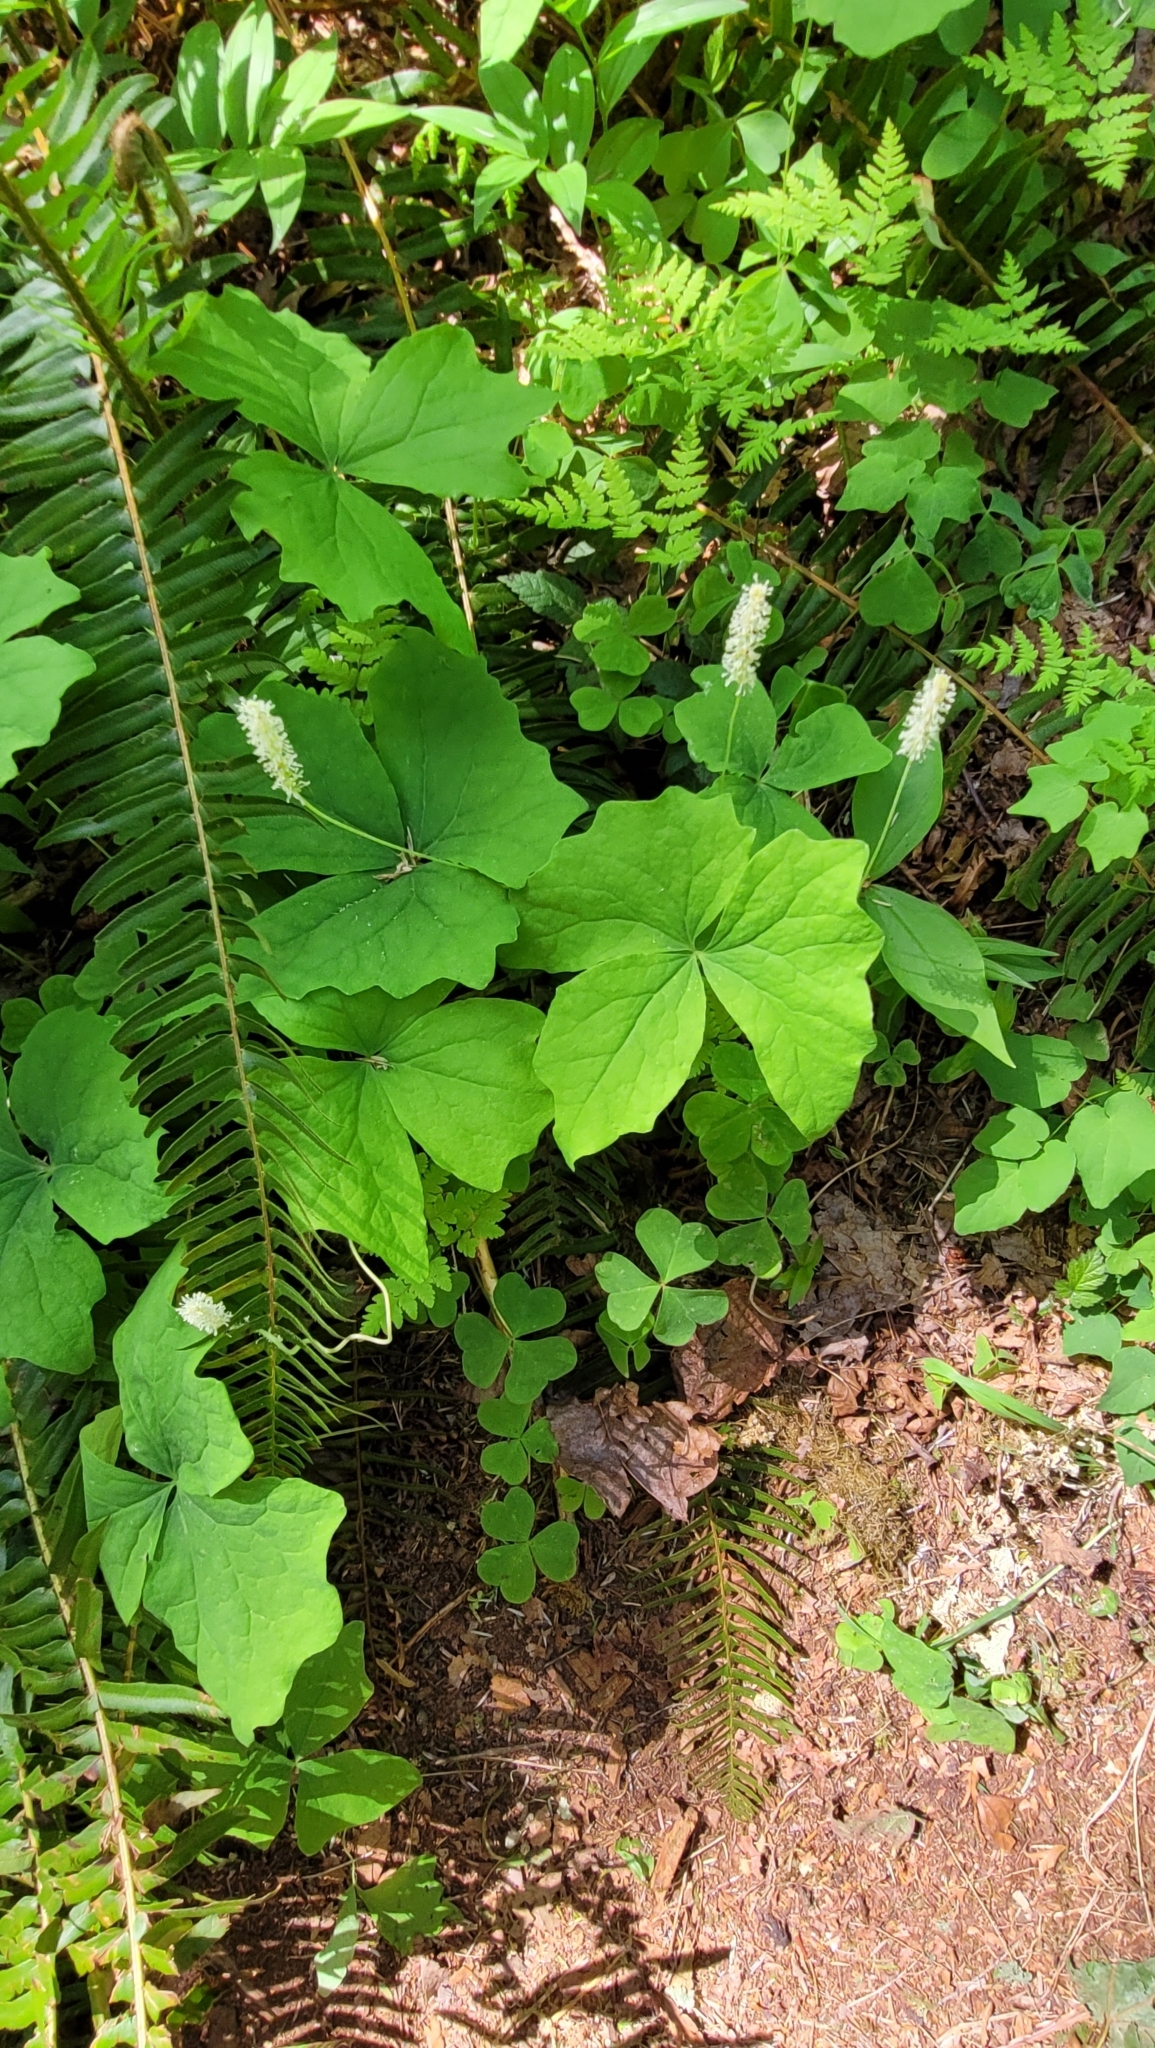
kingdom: Plantae
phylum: Tracheophyta
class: Magnoliopsida
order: Ranunculales
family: Berberidaceae
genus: Achlys
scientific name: Achlys triphylla
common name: Vanilla-leaf
